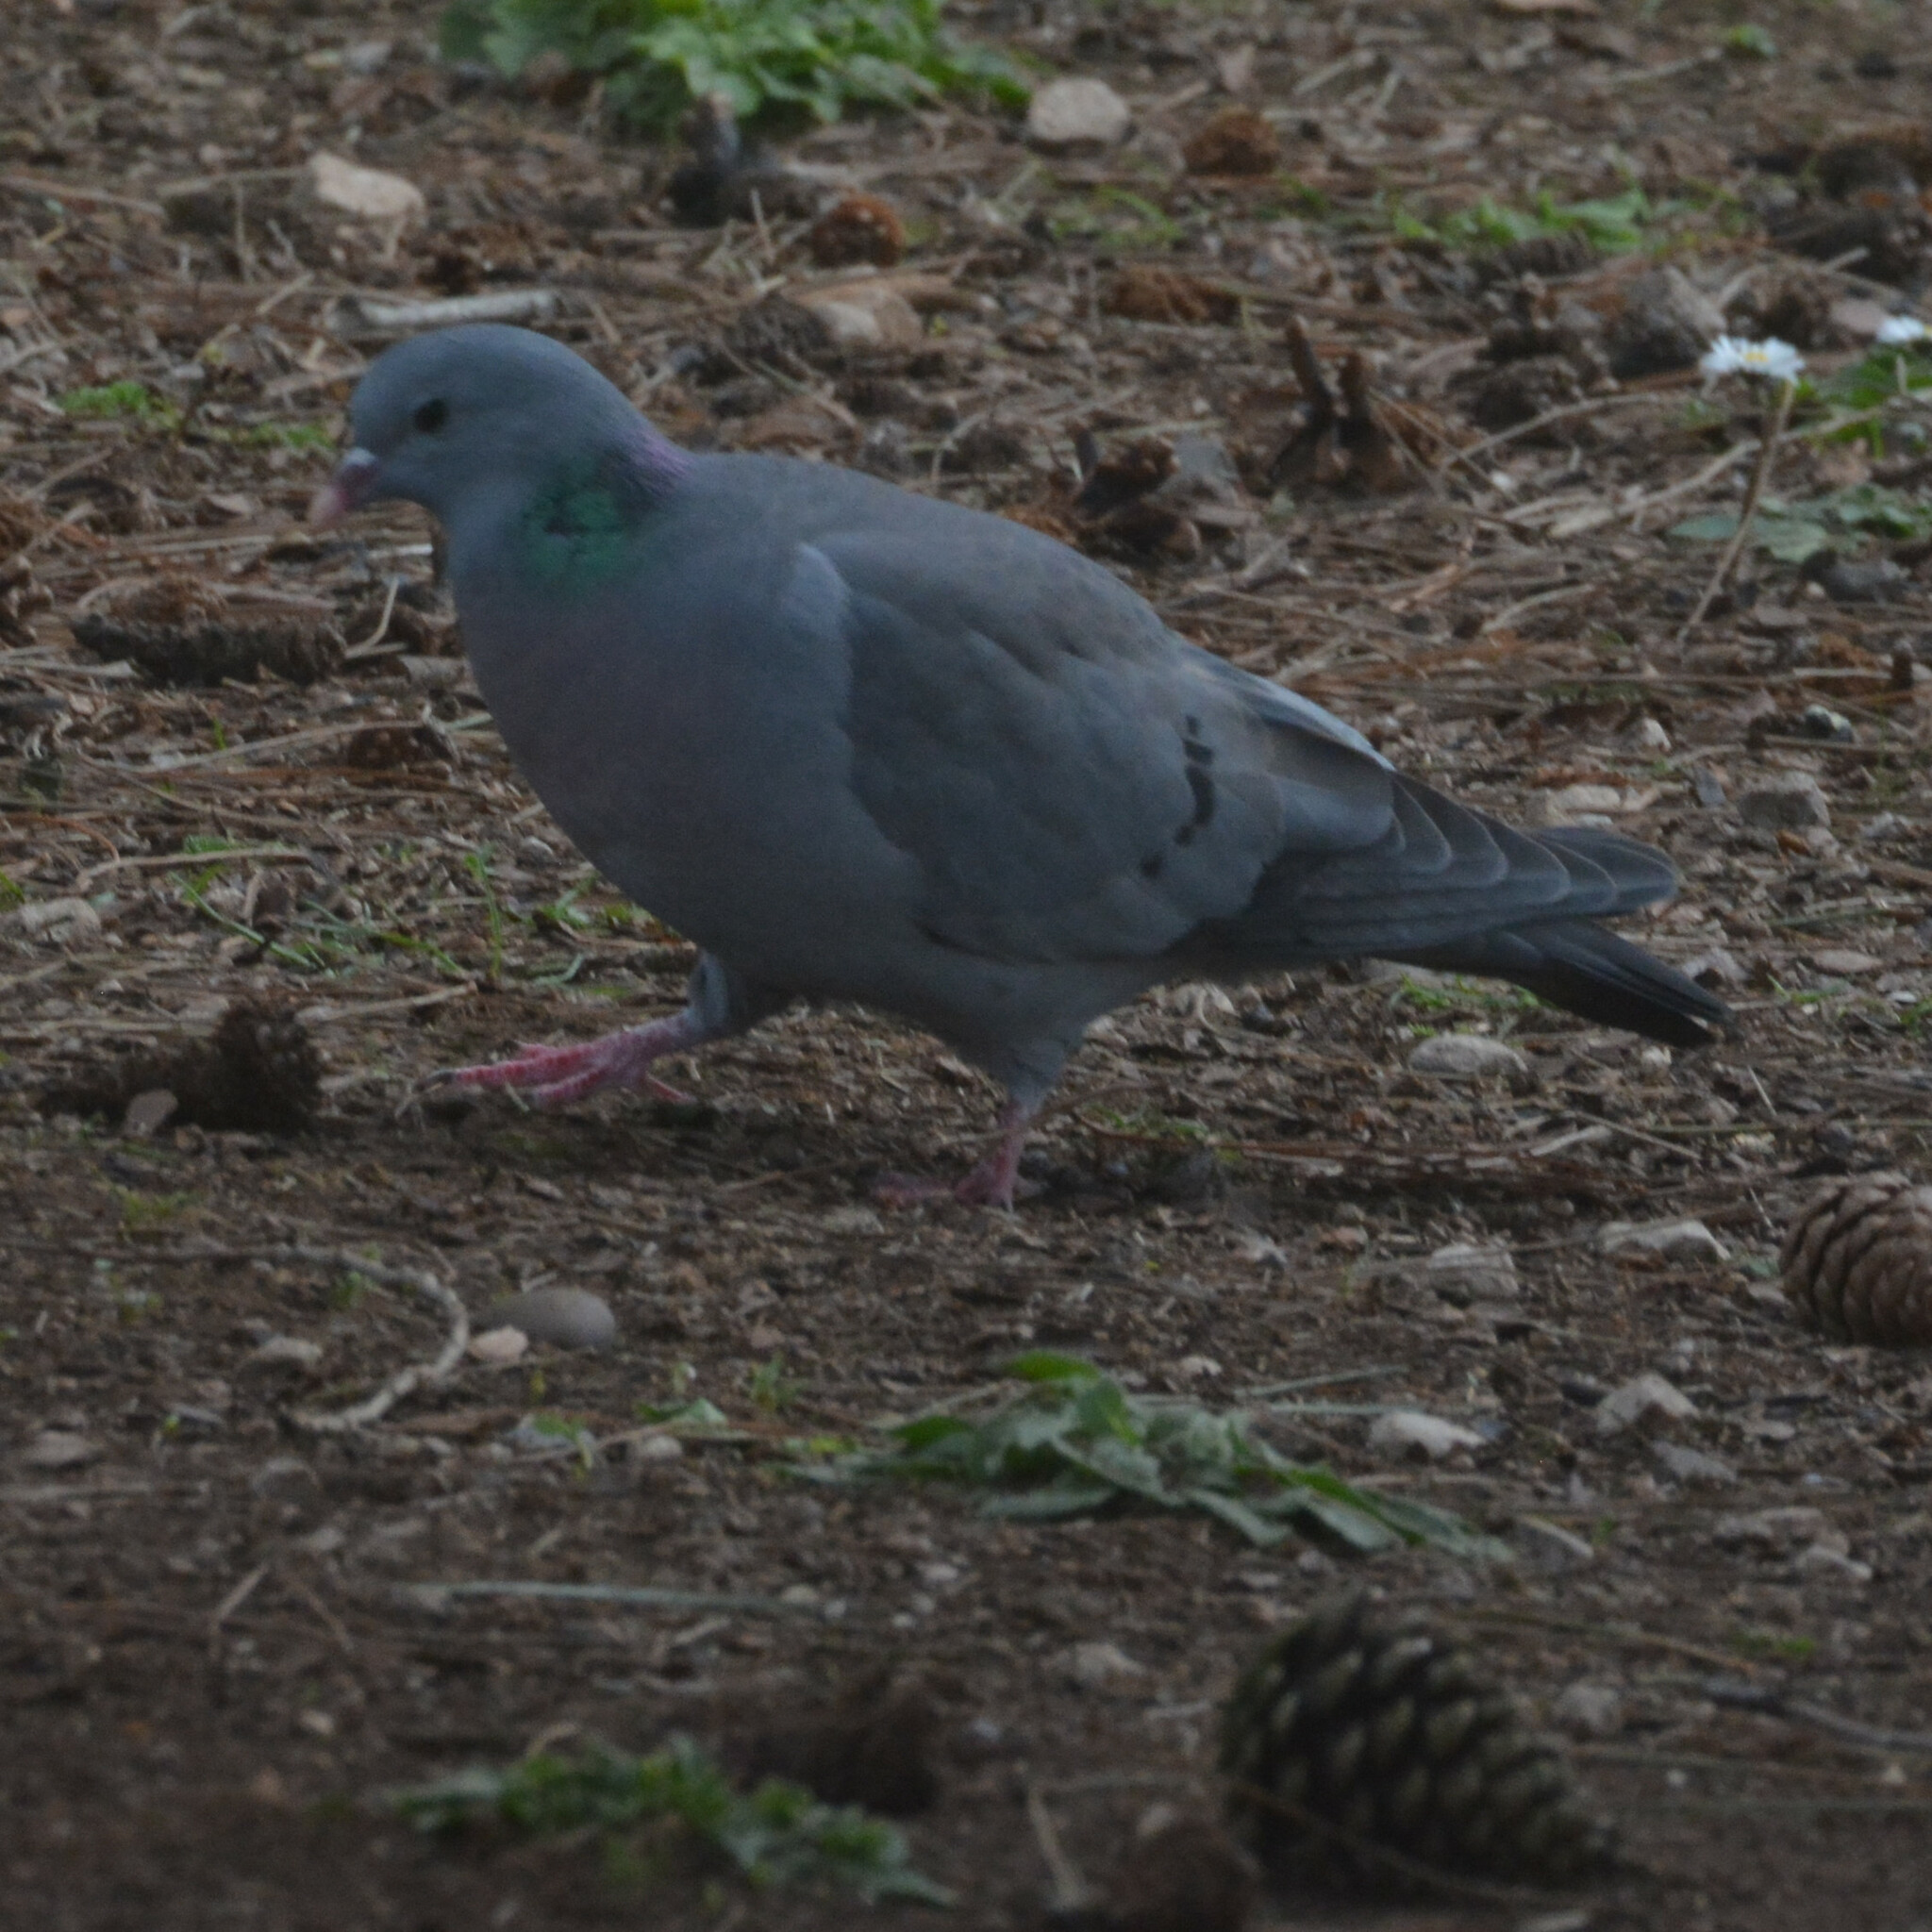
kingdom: Animalia
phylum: Chordata
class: Aves
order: Columbiformes
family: Columbidae
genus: Columba
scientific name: Columba oenas
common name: Stock dove
